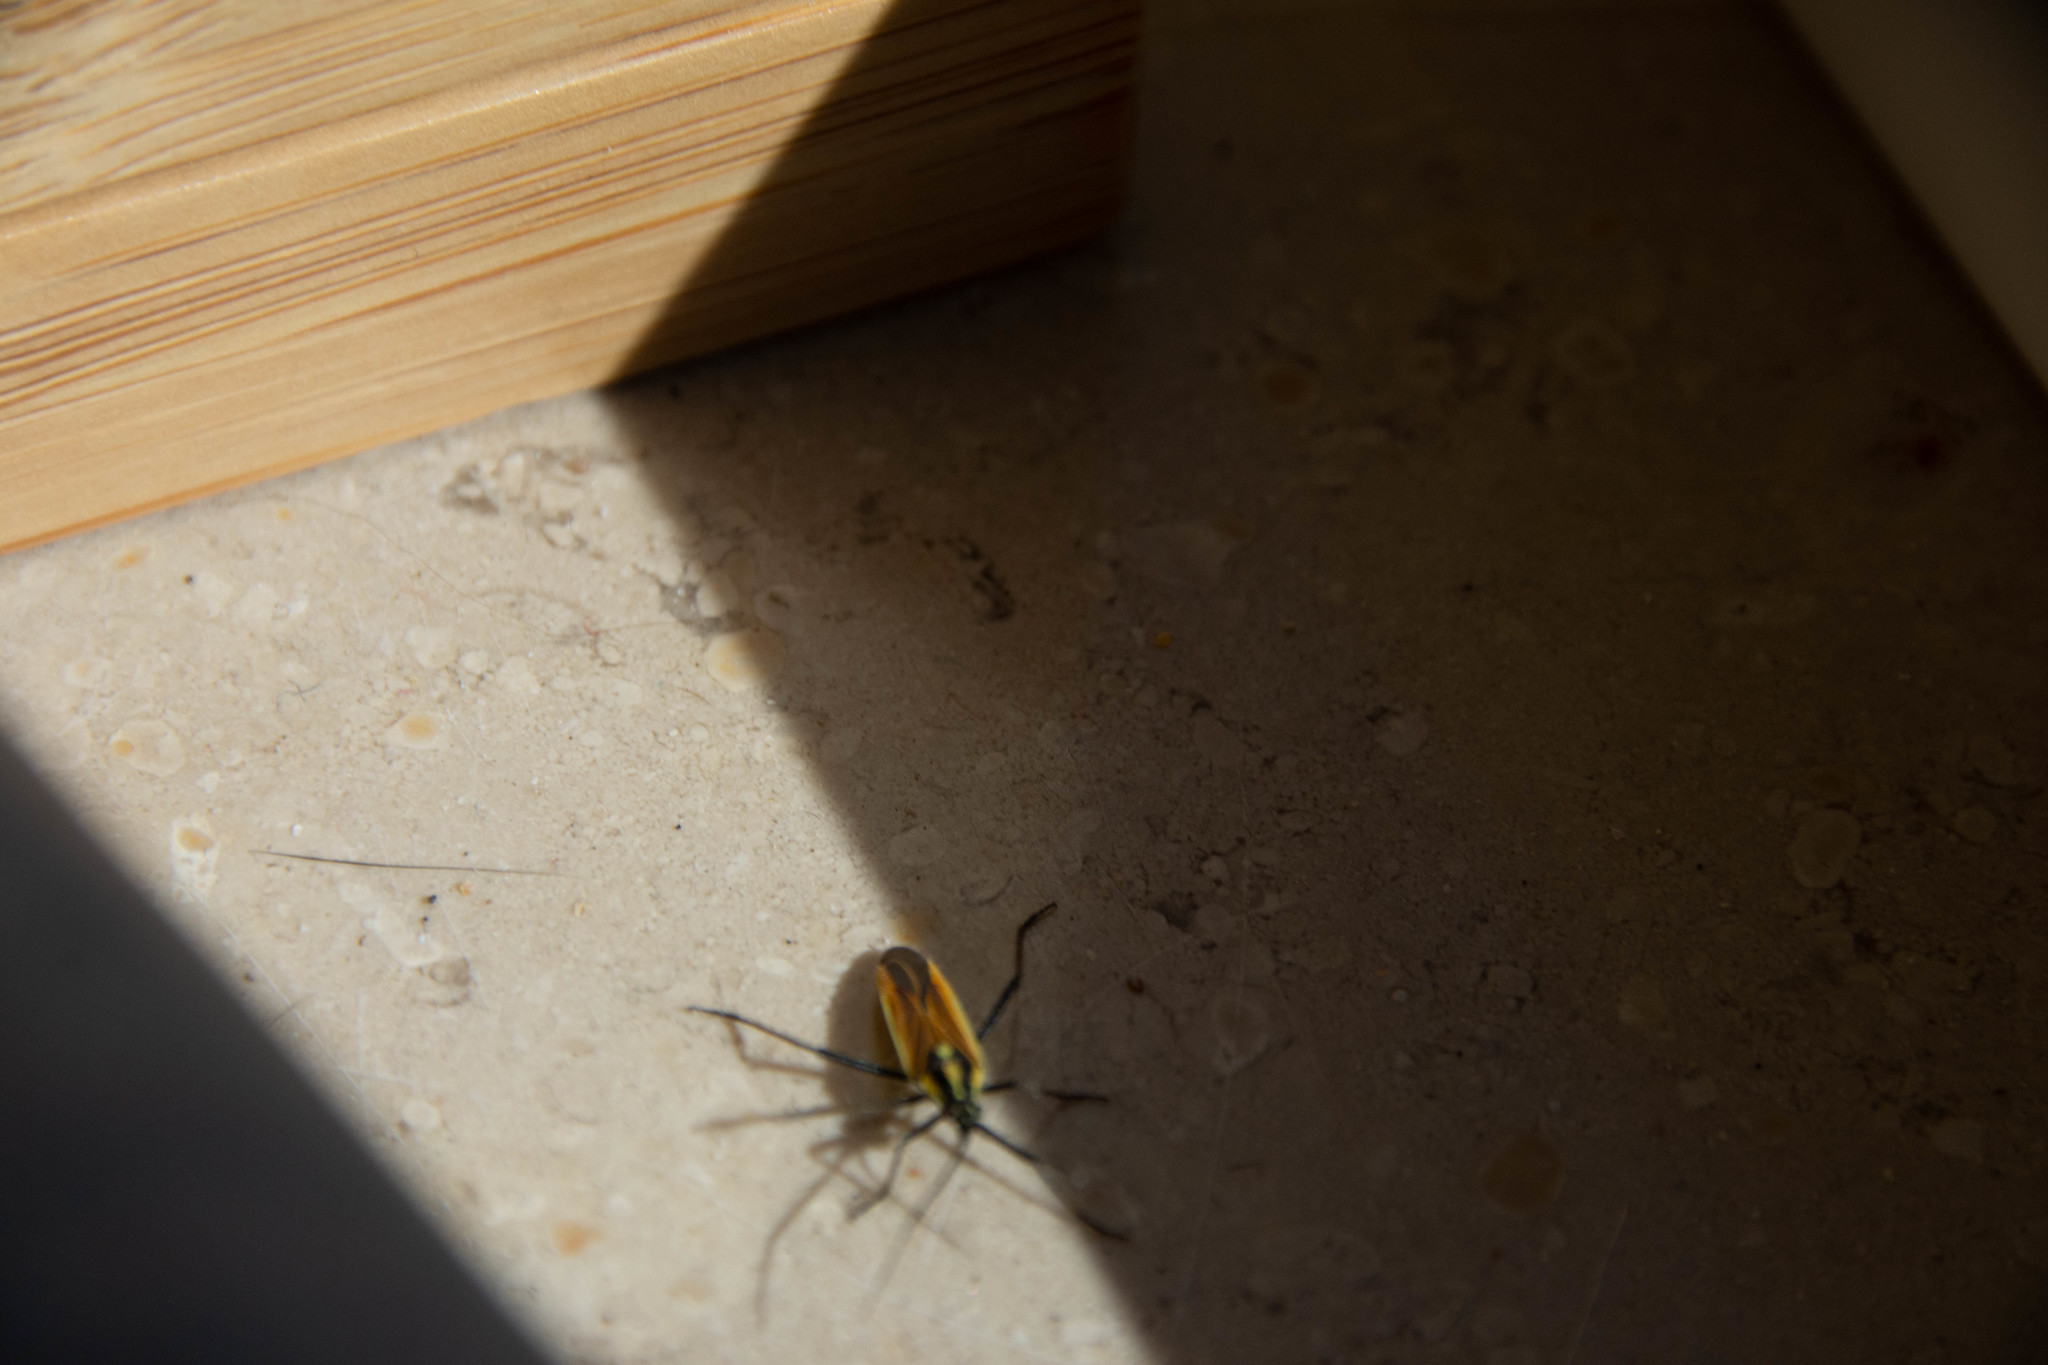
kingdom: Animalia
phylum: Arthropoda
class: Insecta
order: Hemiptera
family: Miridae
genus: Leptopterna
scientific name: Leptopterna dolabrata
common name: Meadow plant bug
